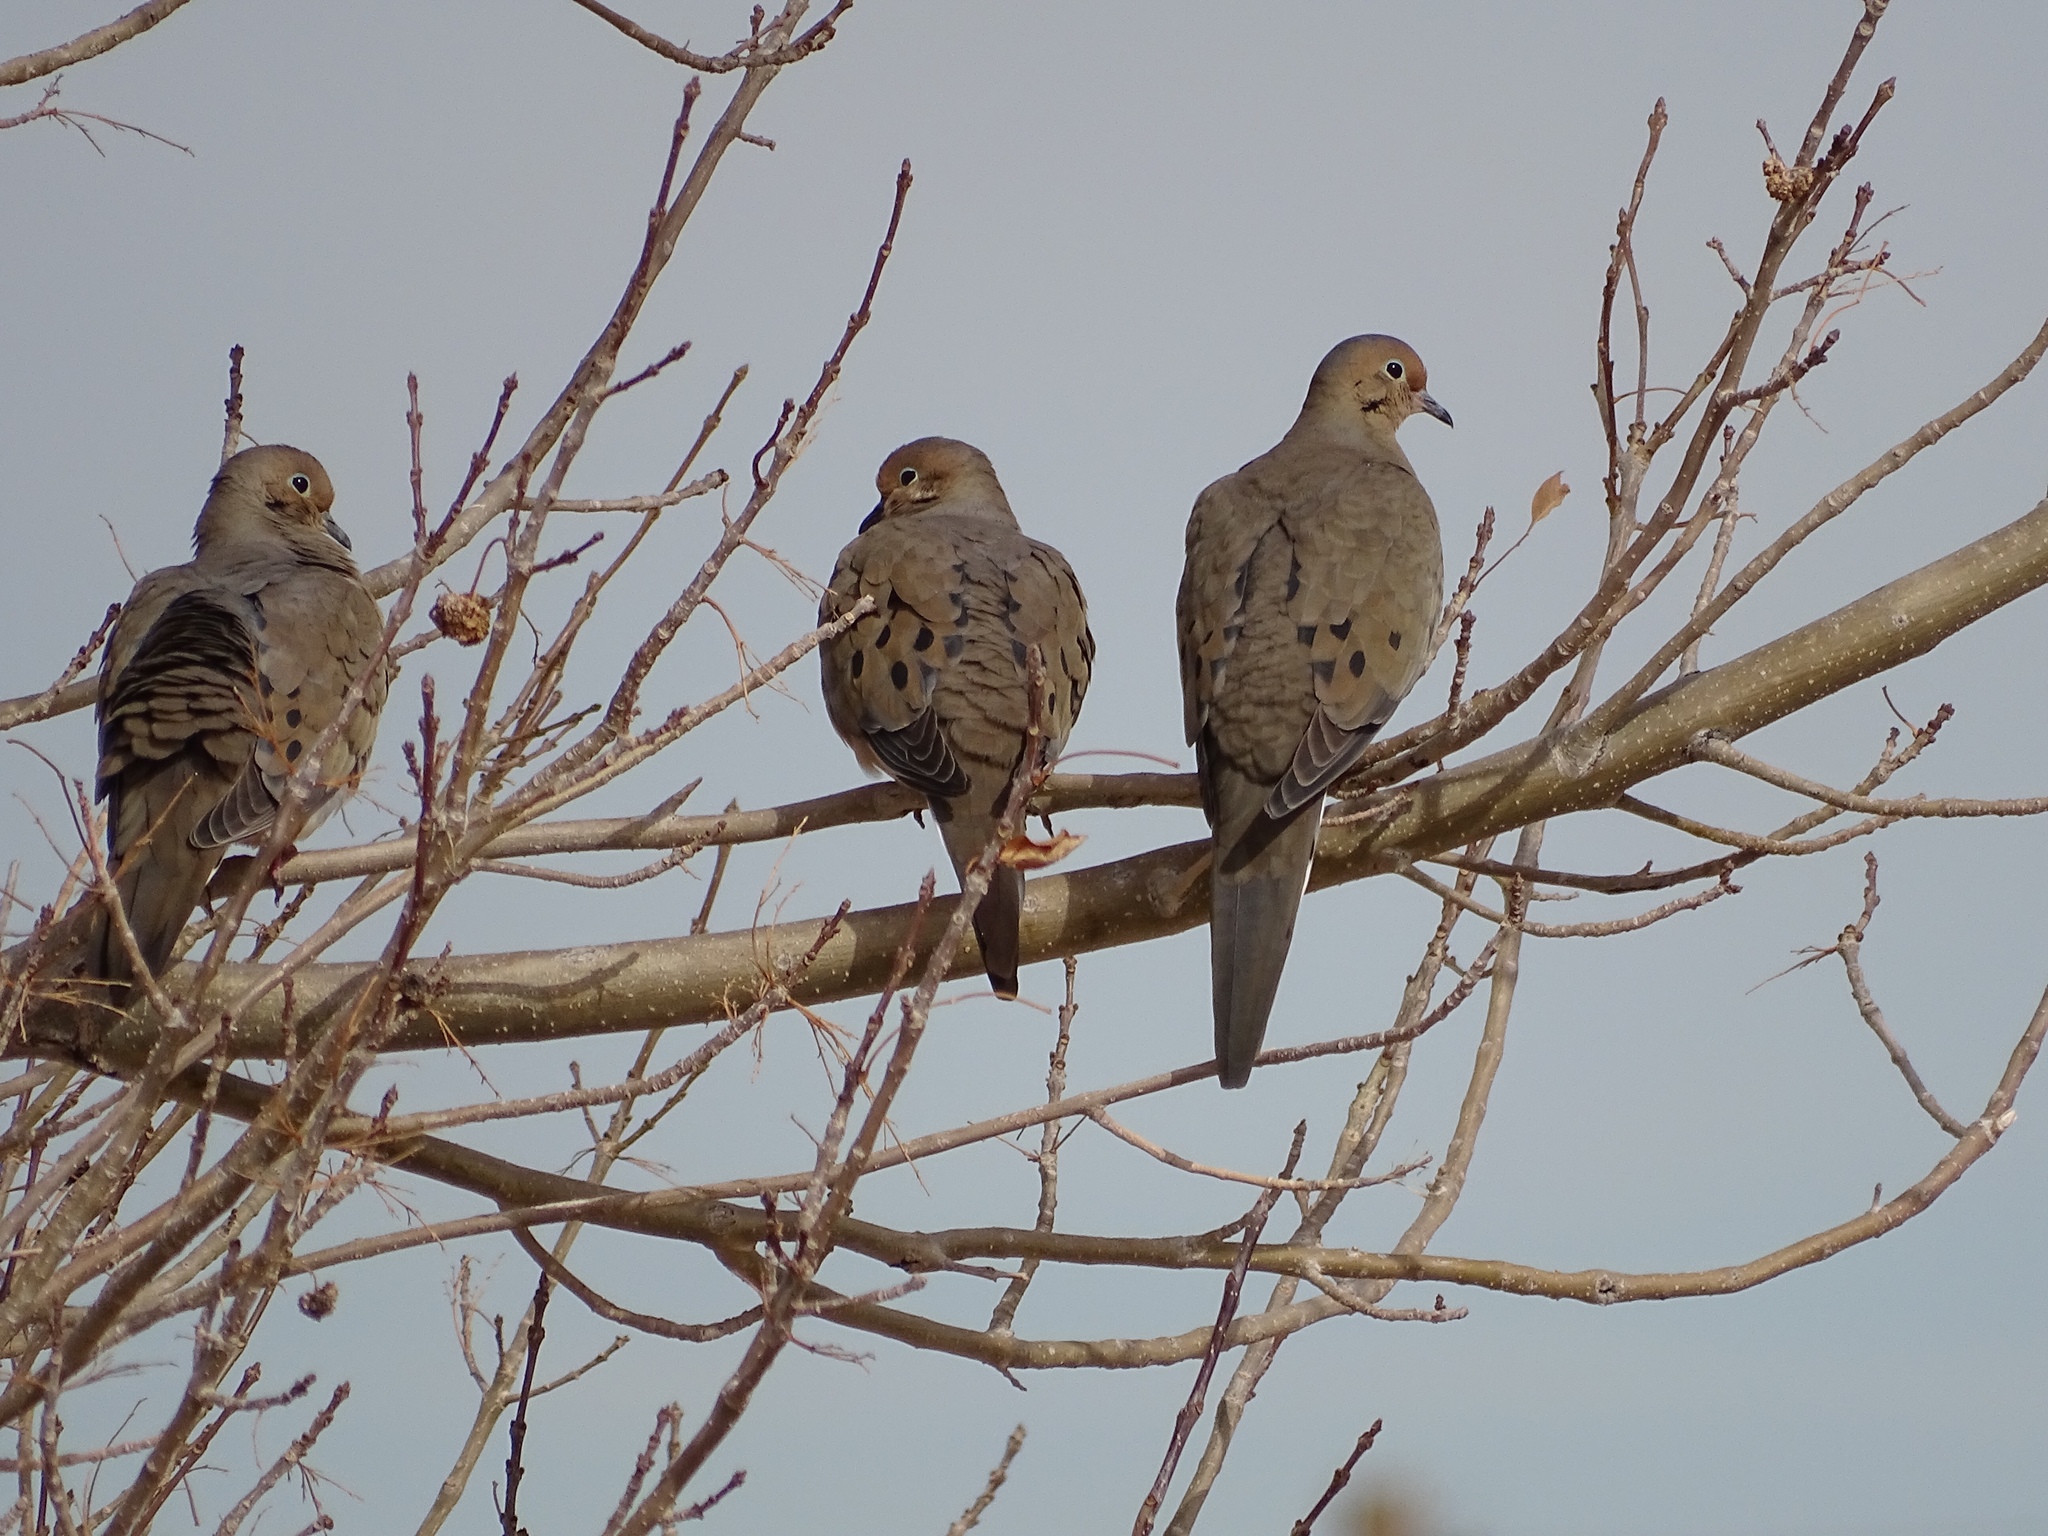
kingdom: Animalia
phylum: Chordata
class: Aves
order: Columbiformes
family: Columbidae
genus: Zenaida
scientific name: Zenaida macroura
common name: Mourning dove
